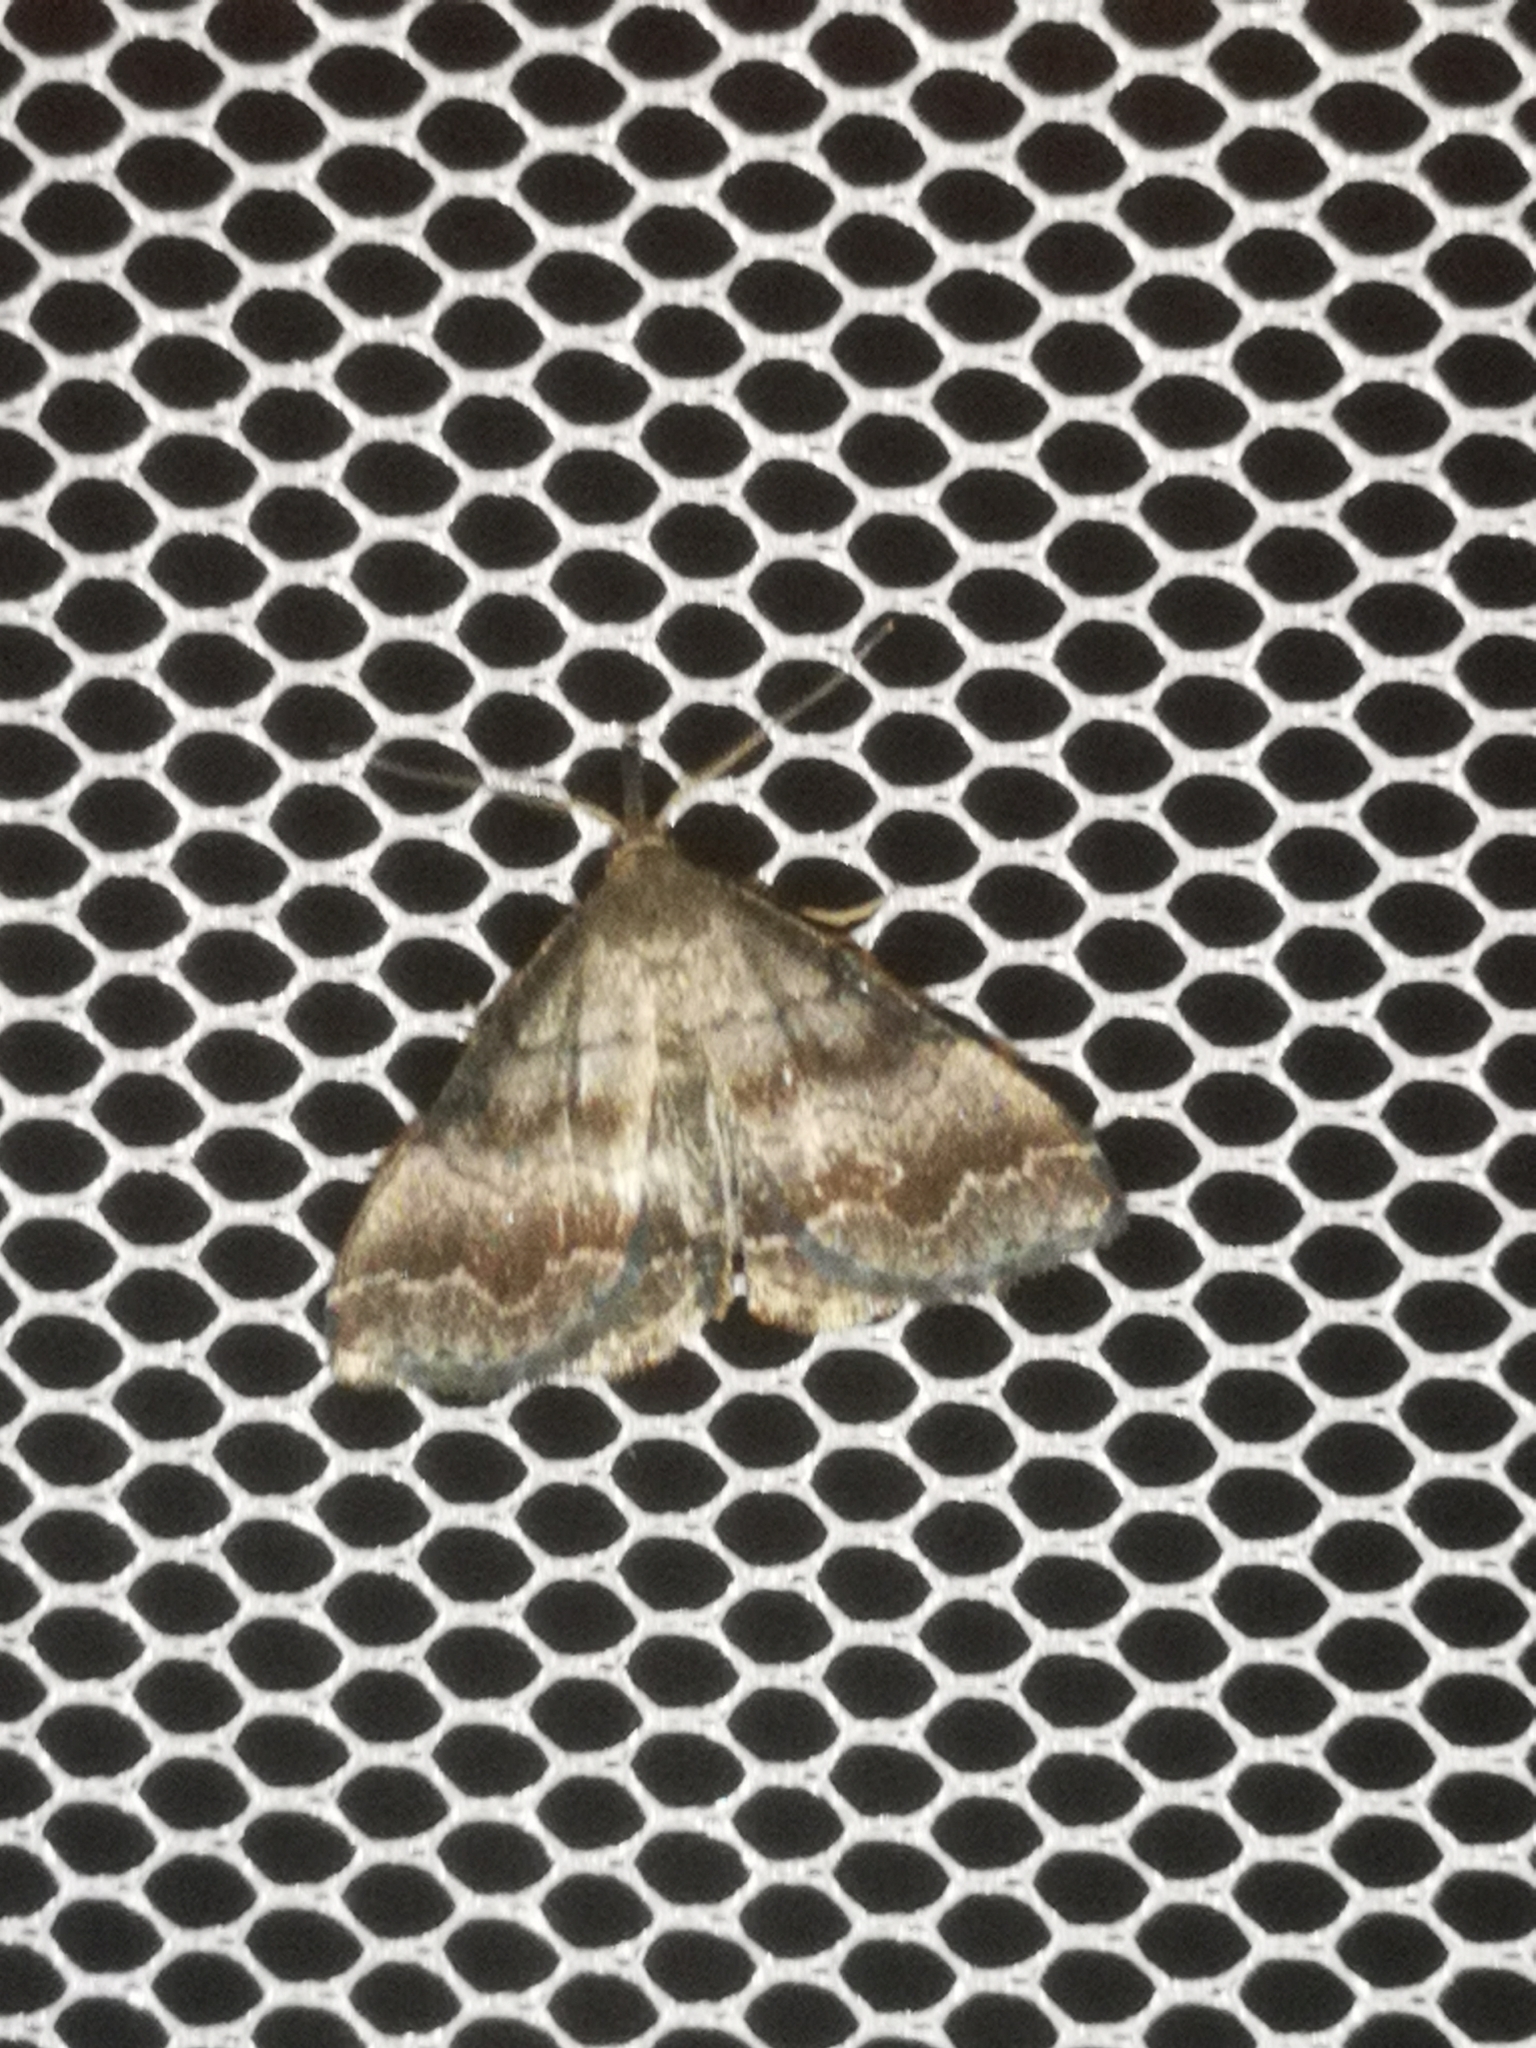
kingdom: Animalia
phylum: Arthropoda
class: Insecta
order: Lepidoptera
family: Erebidae
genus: Phalaenostola
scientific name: Phalaenostola larentioides
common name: Black-banded owlet
